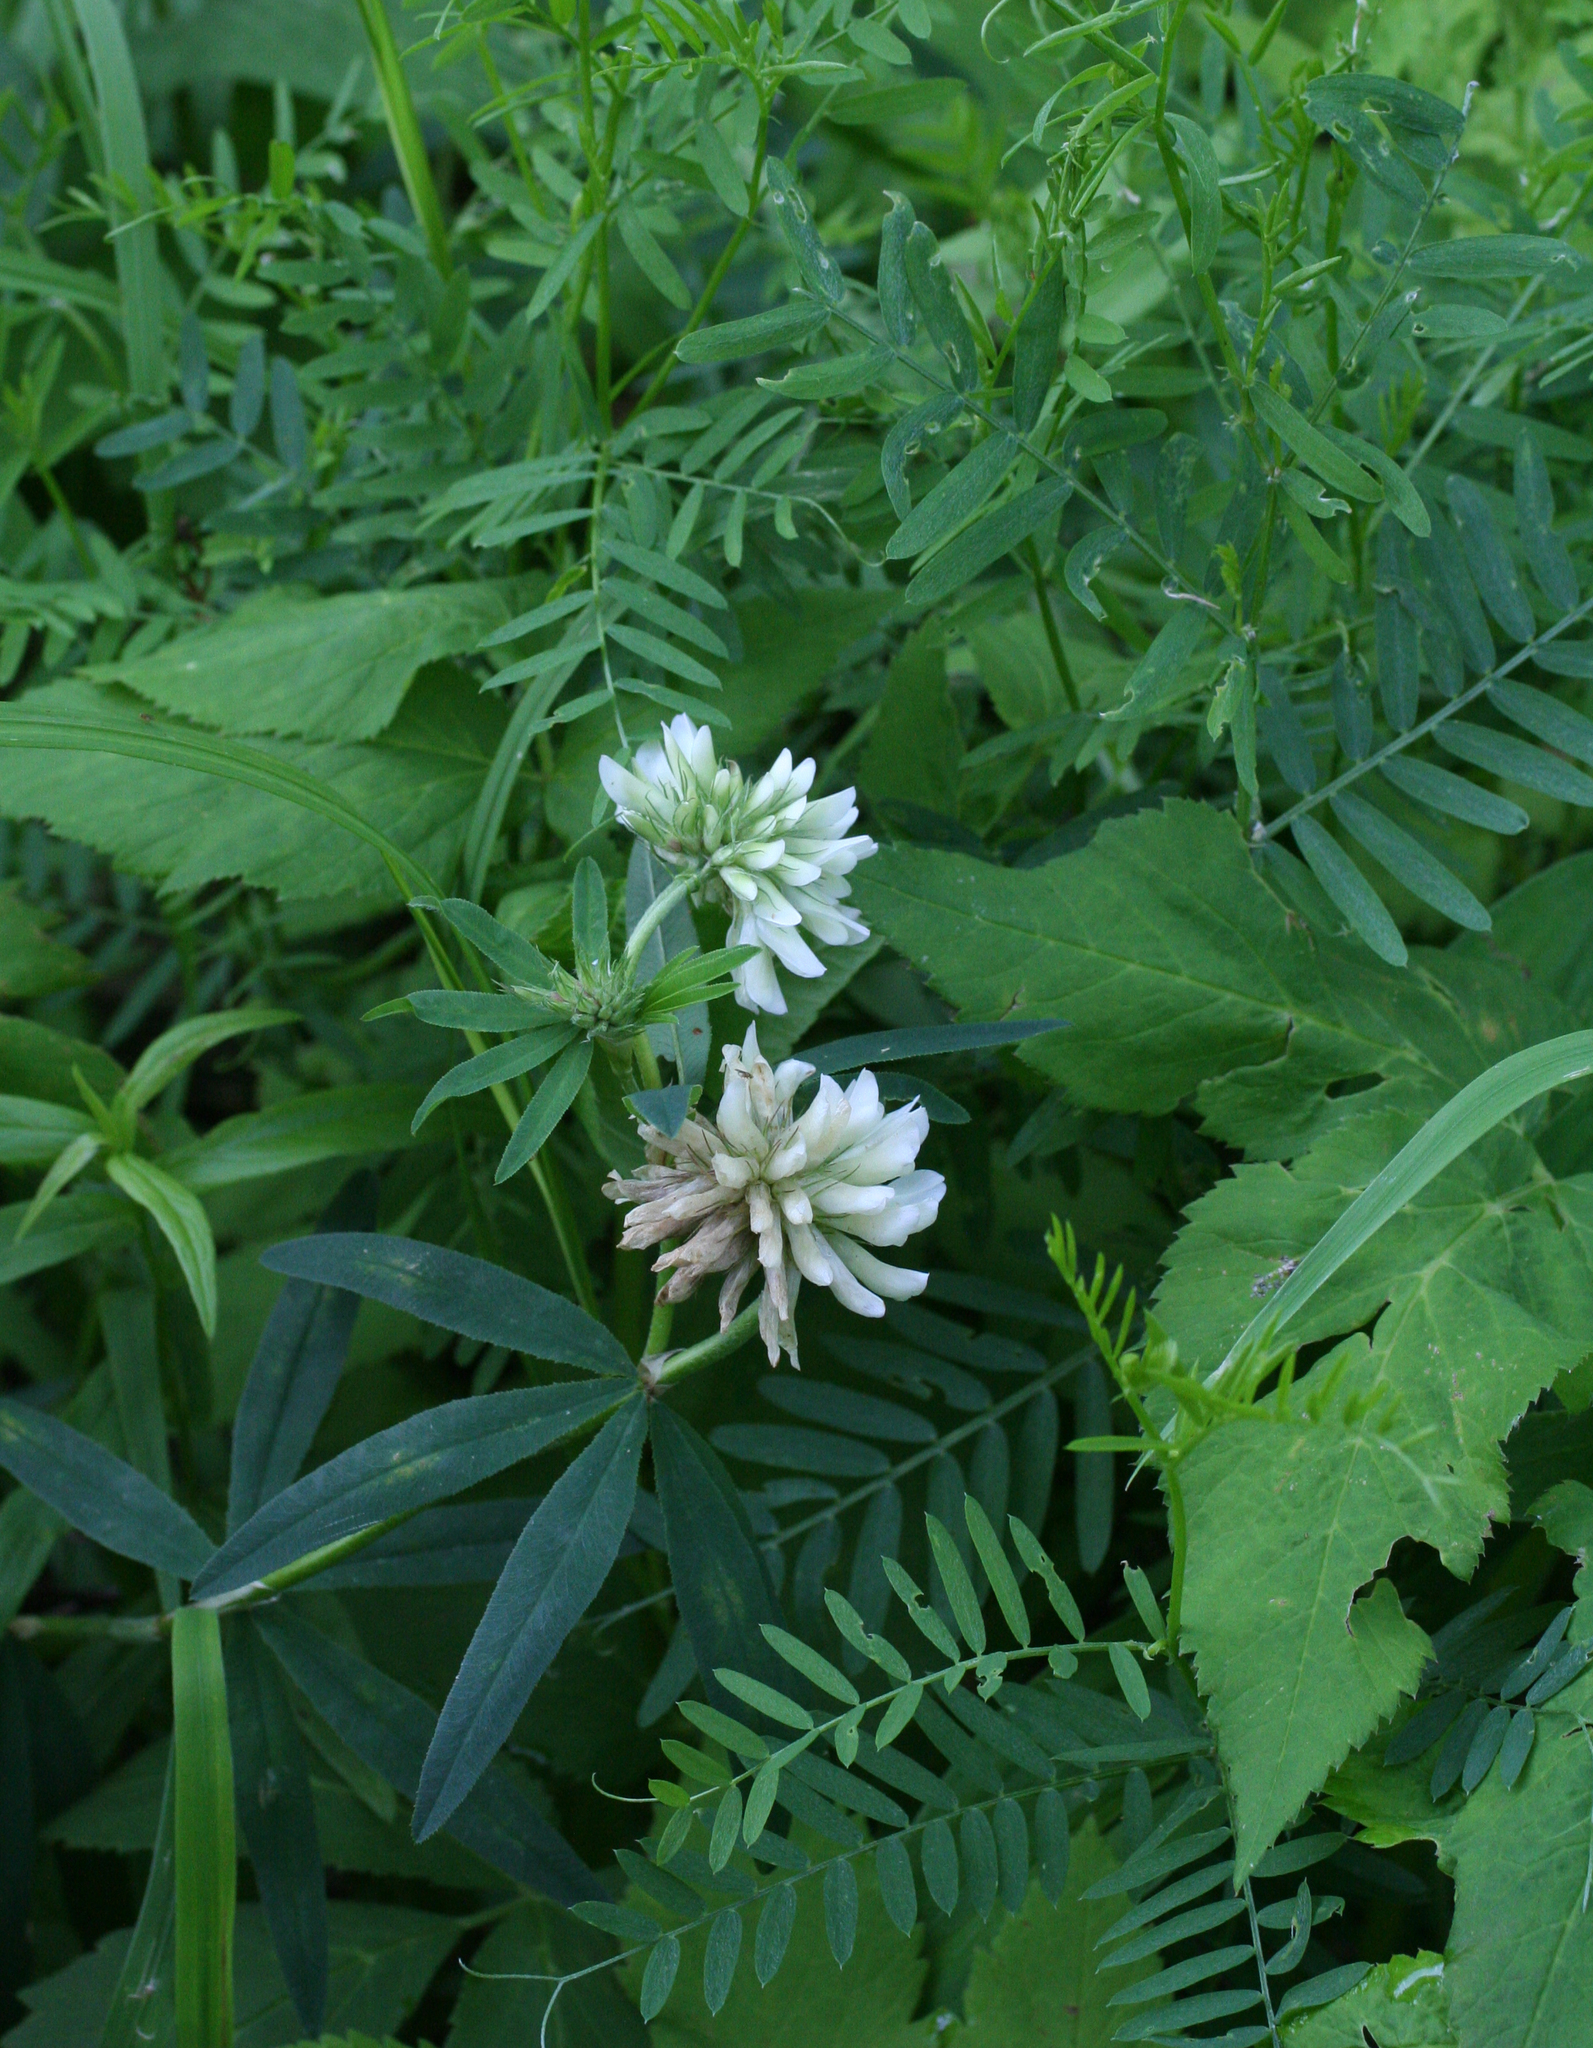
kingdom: Plantae
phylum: Tracheophyta
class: Magnoliopsida
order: Fabales
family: Fabaceae
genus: Trifolium
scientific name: Trifolium lupinaster
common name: Lupine clover
